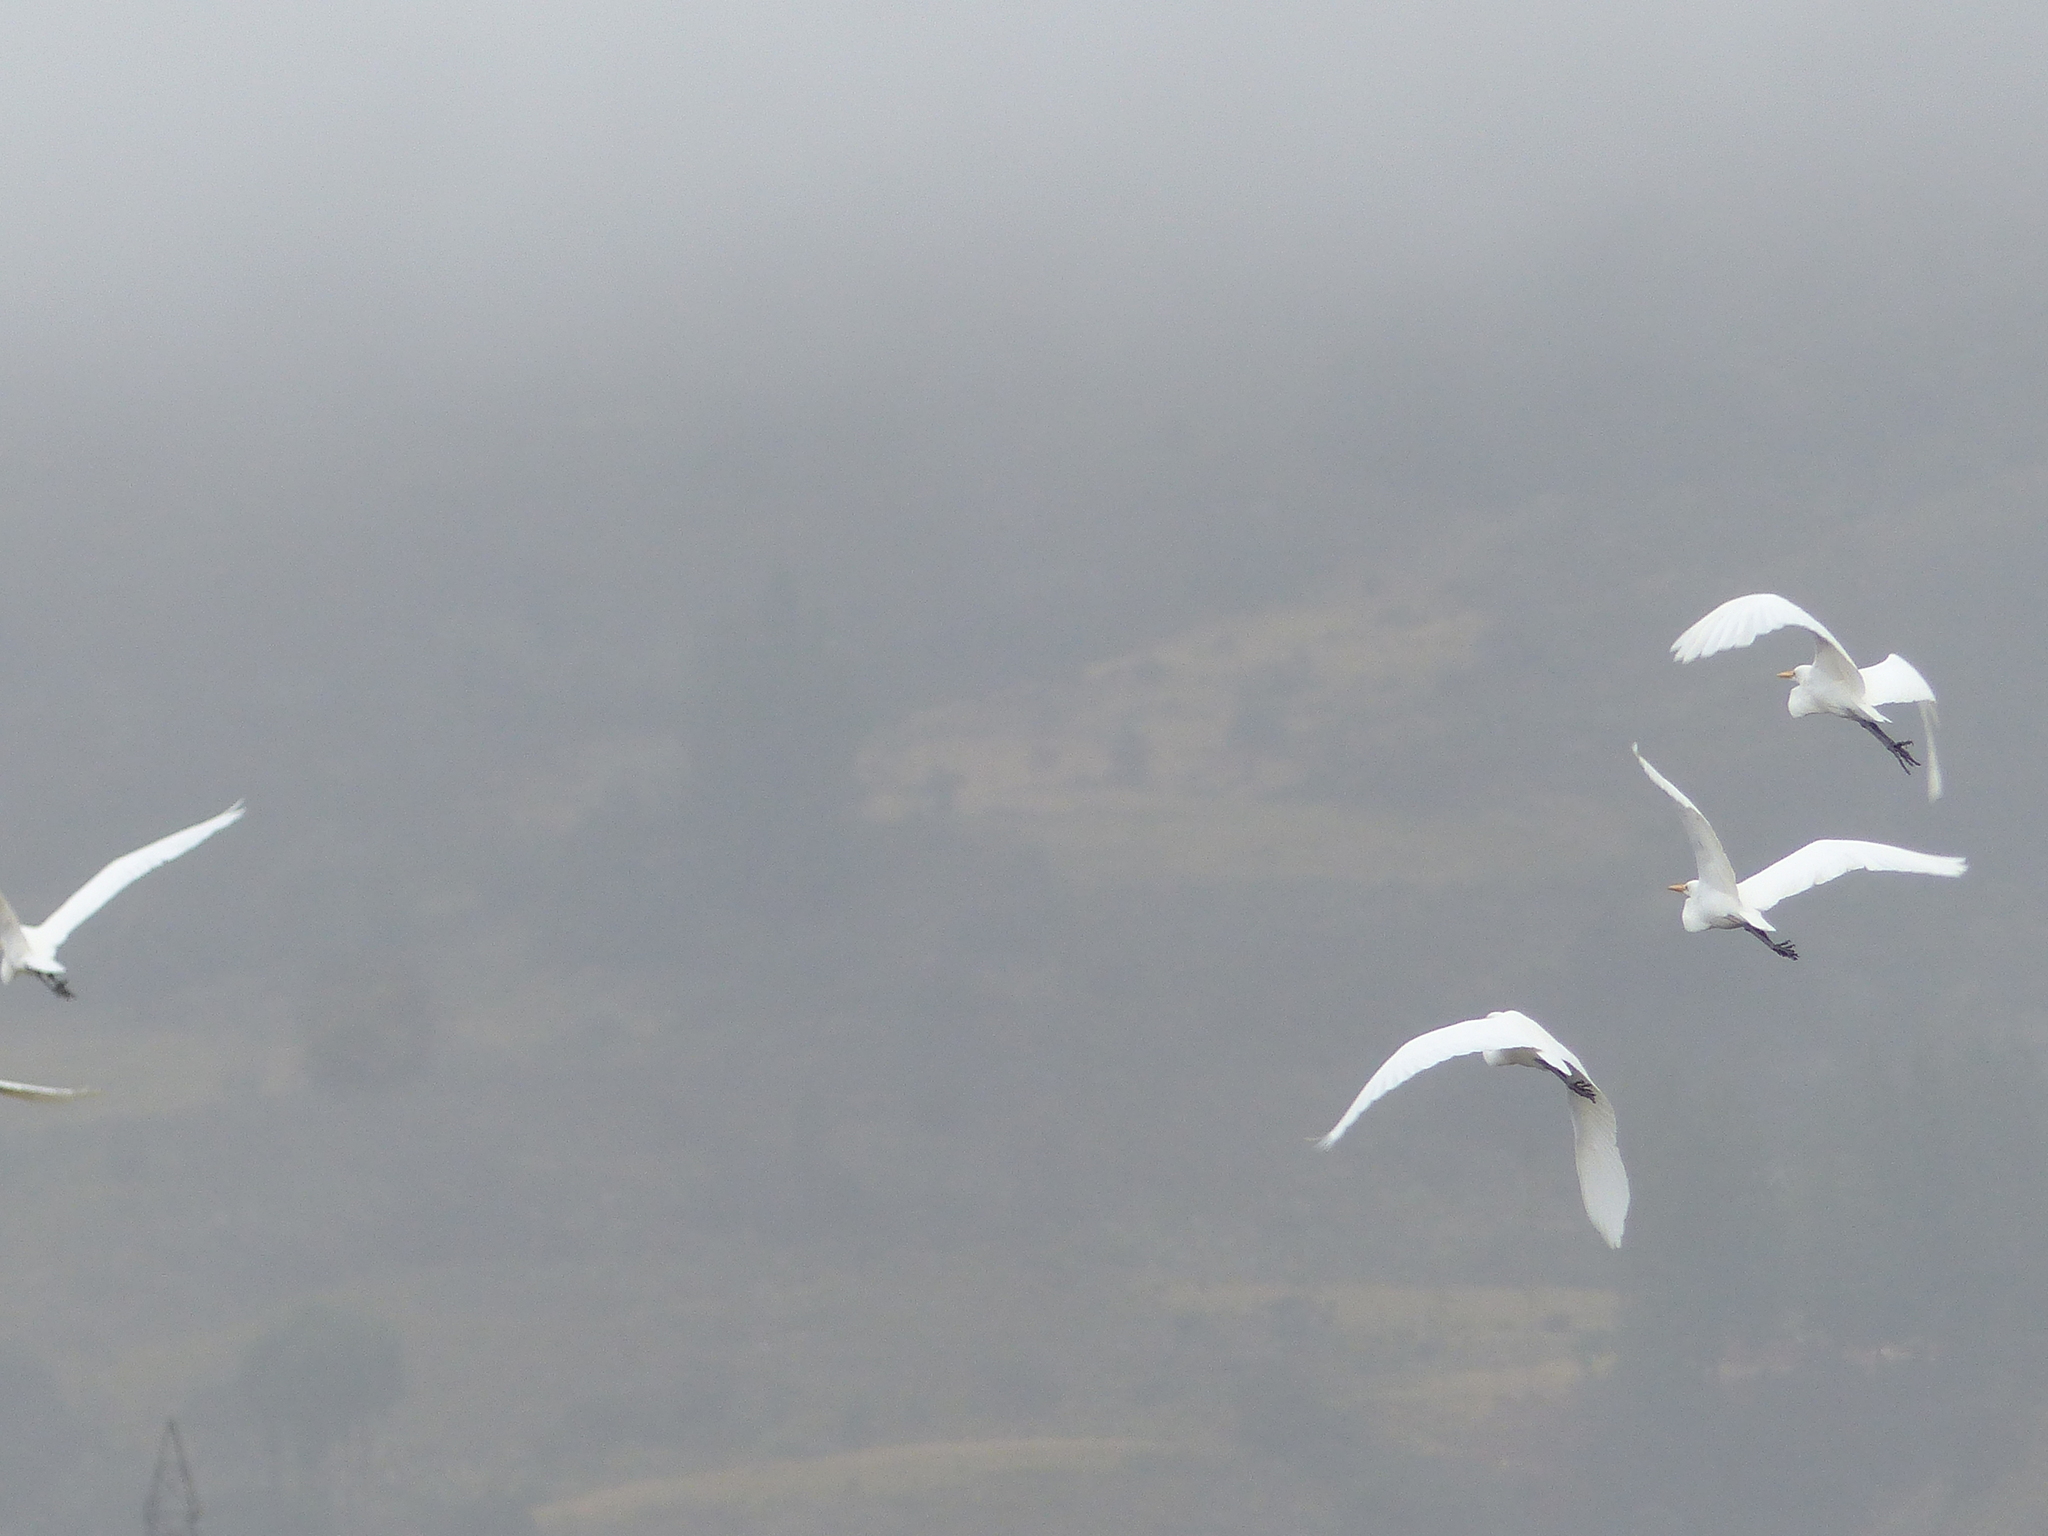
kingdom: Animalia
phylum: Chordata
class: Aves
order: Pelecaniformes
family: Ardeidae
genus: Ardea
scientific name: Ardea alba
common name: Great egret
